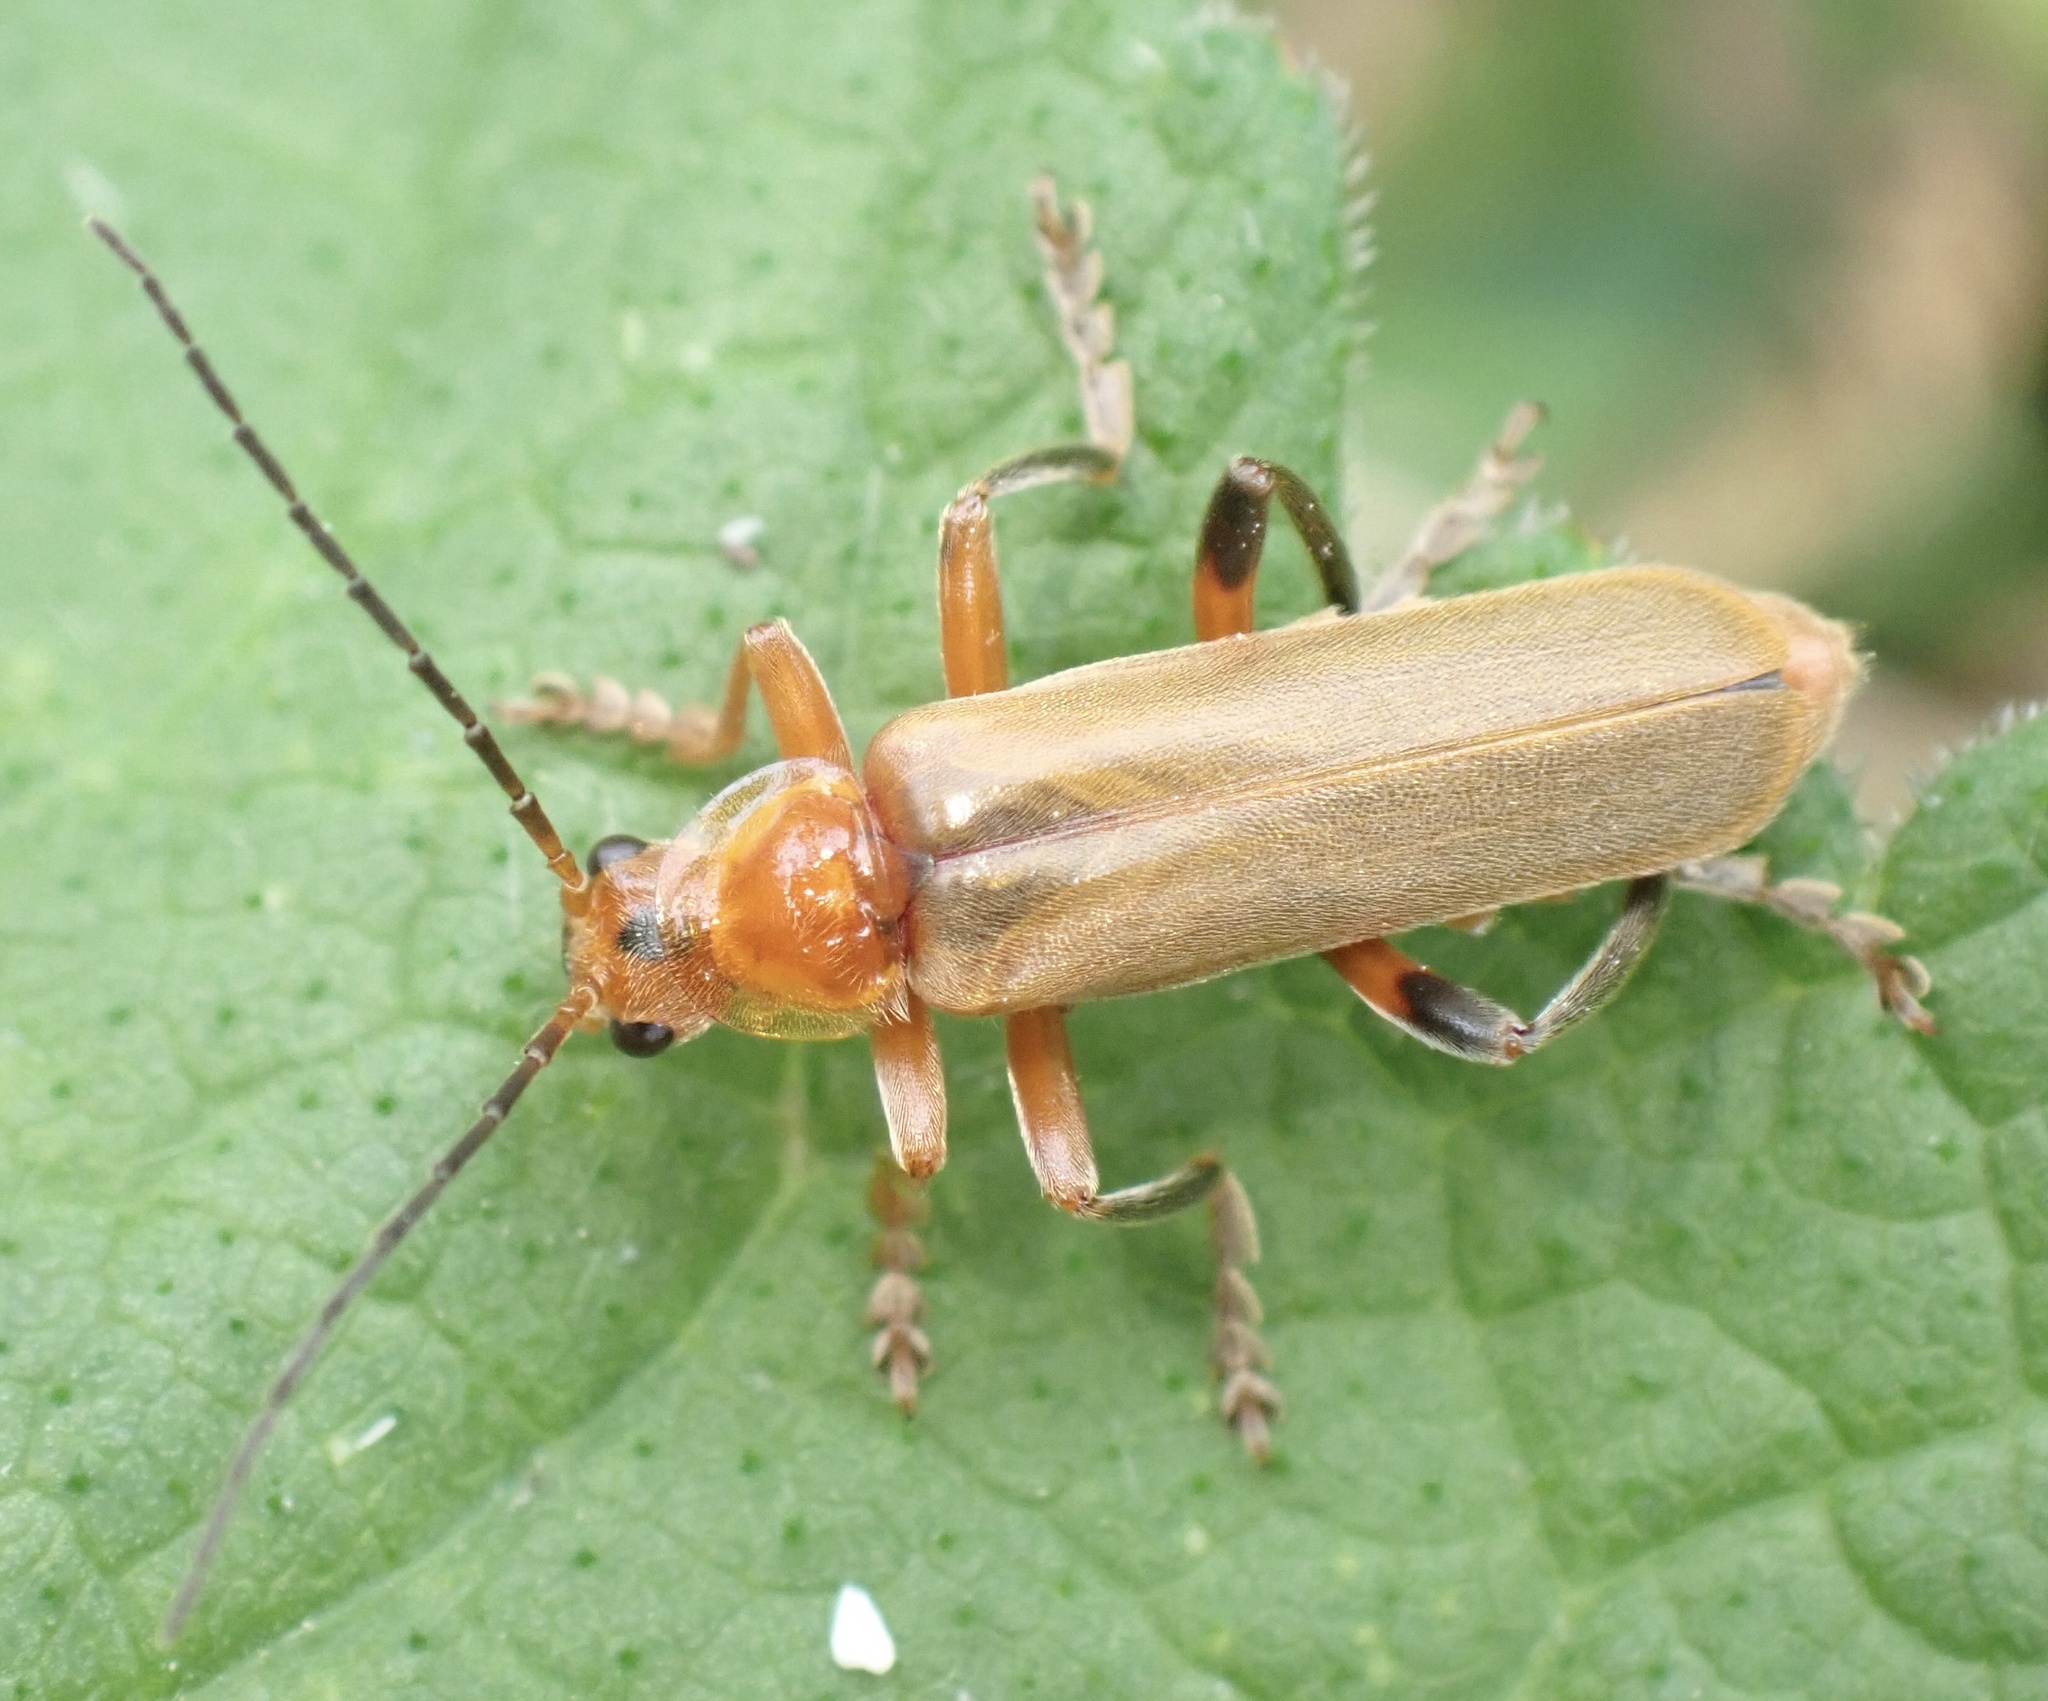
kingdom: Animalia
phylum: Arthropoda
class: Insecta
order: Coleoptera
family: Cantharidae
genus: Cantharis
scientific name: Cantharis livida
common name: Livid soldier beetle
